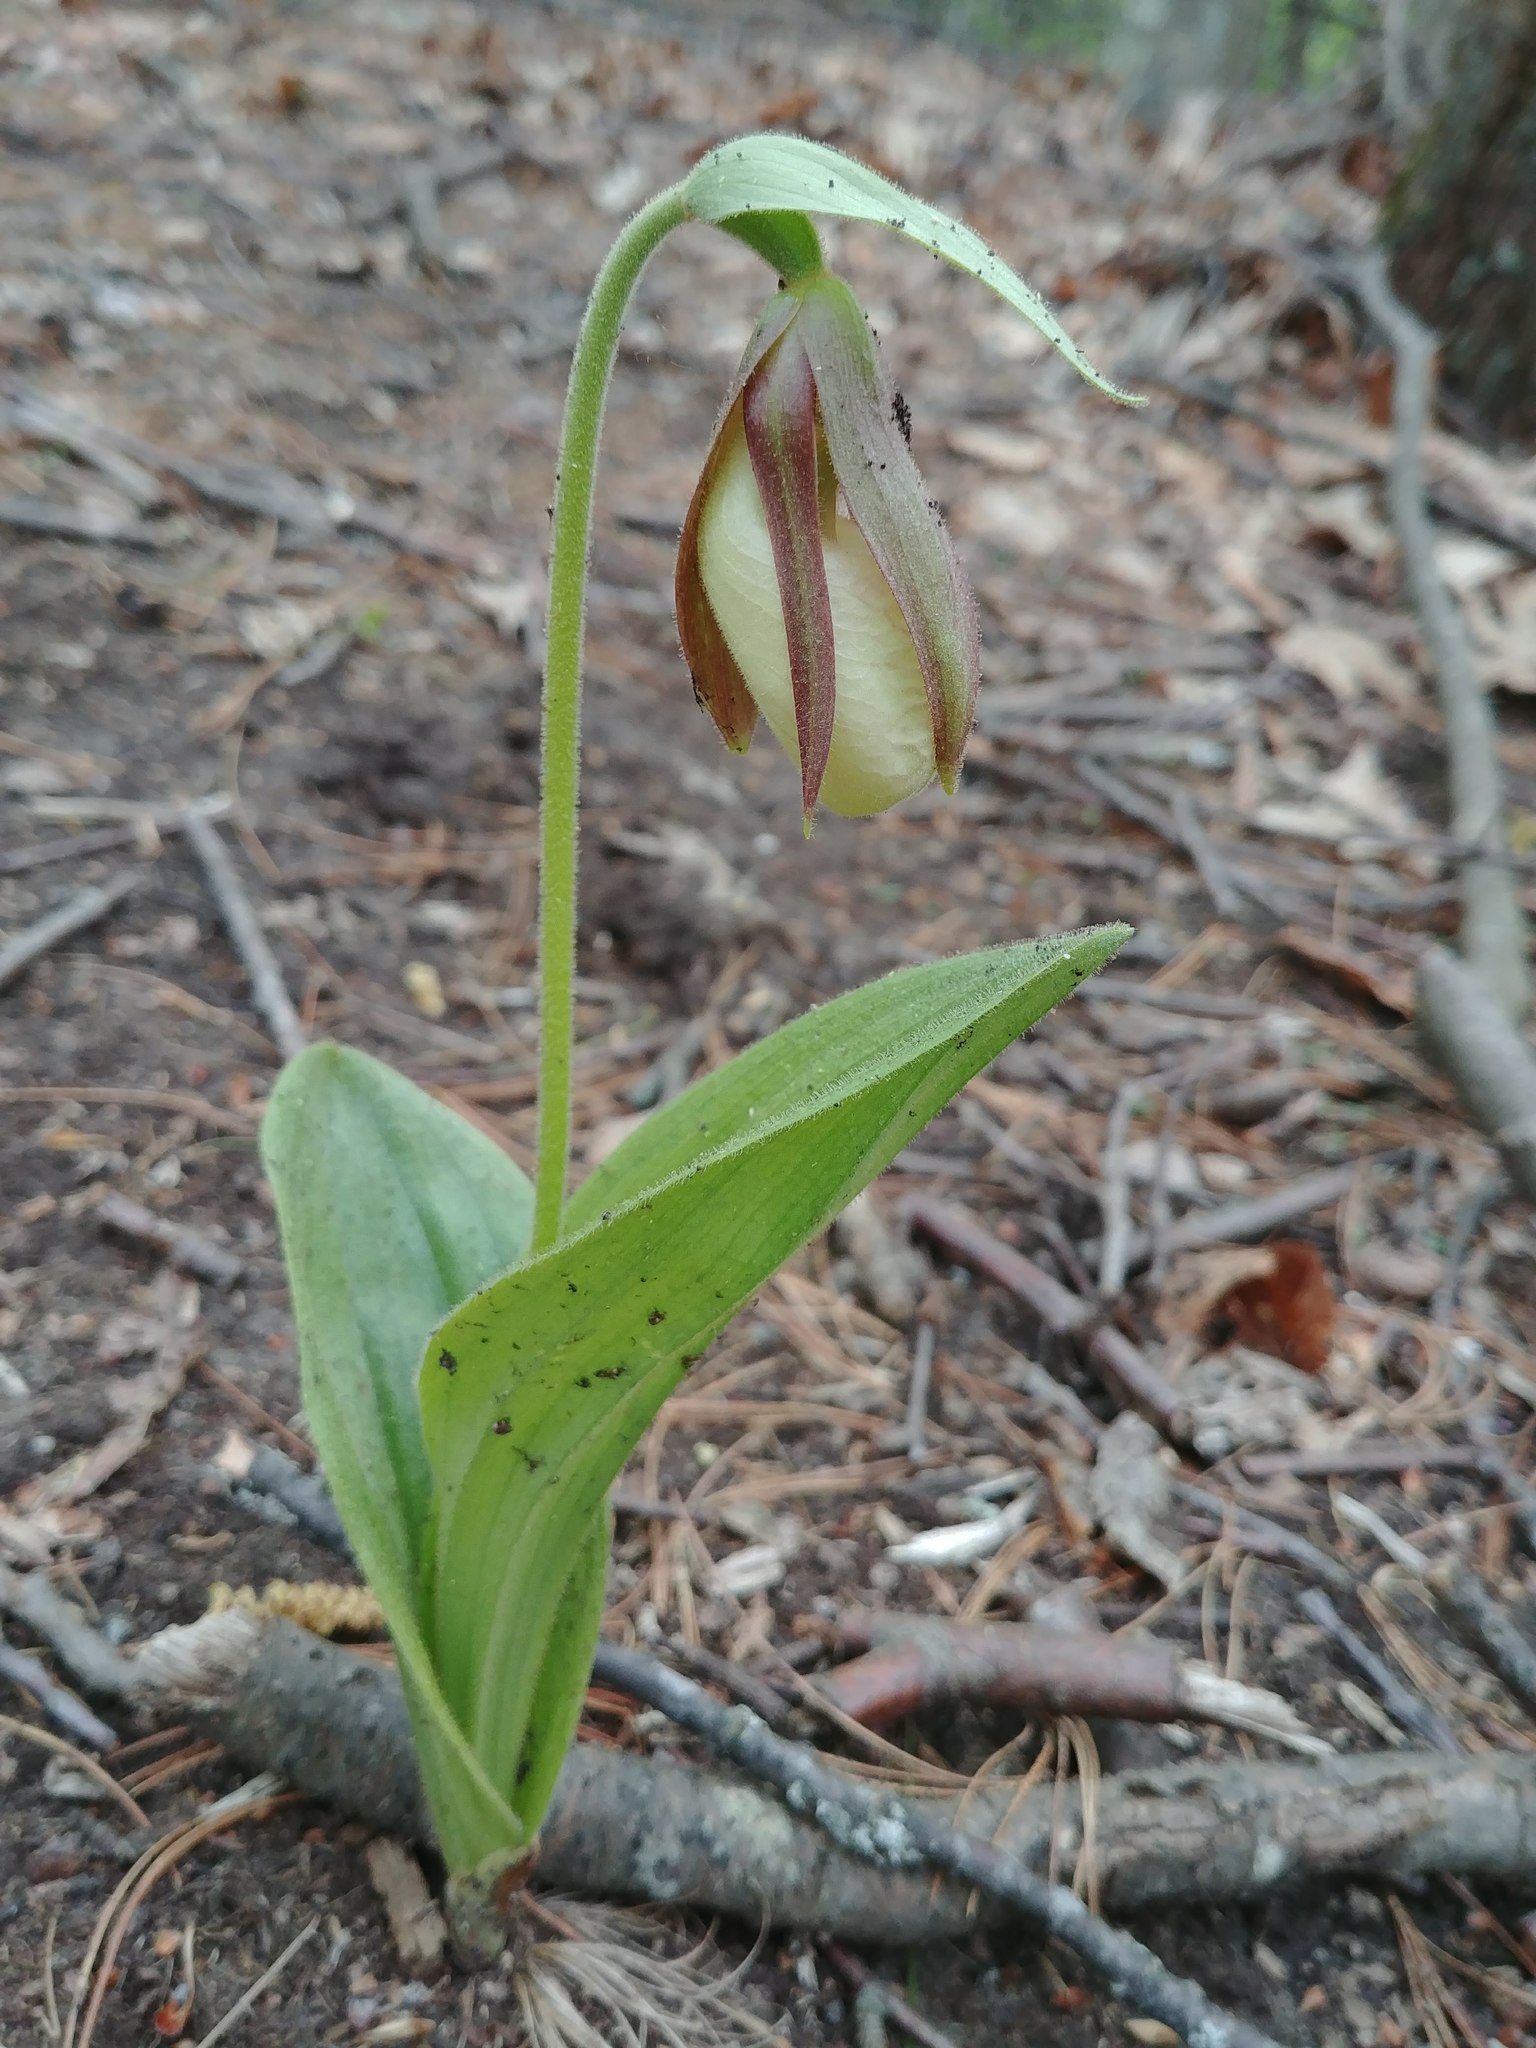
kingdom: Plantae
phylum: Tracheophyta
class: Liliopsida
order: Asparagales
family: Orchidaceae
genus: Cypripedium
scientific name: Cypripedium acaule
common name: Pink lady's-slipper
